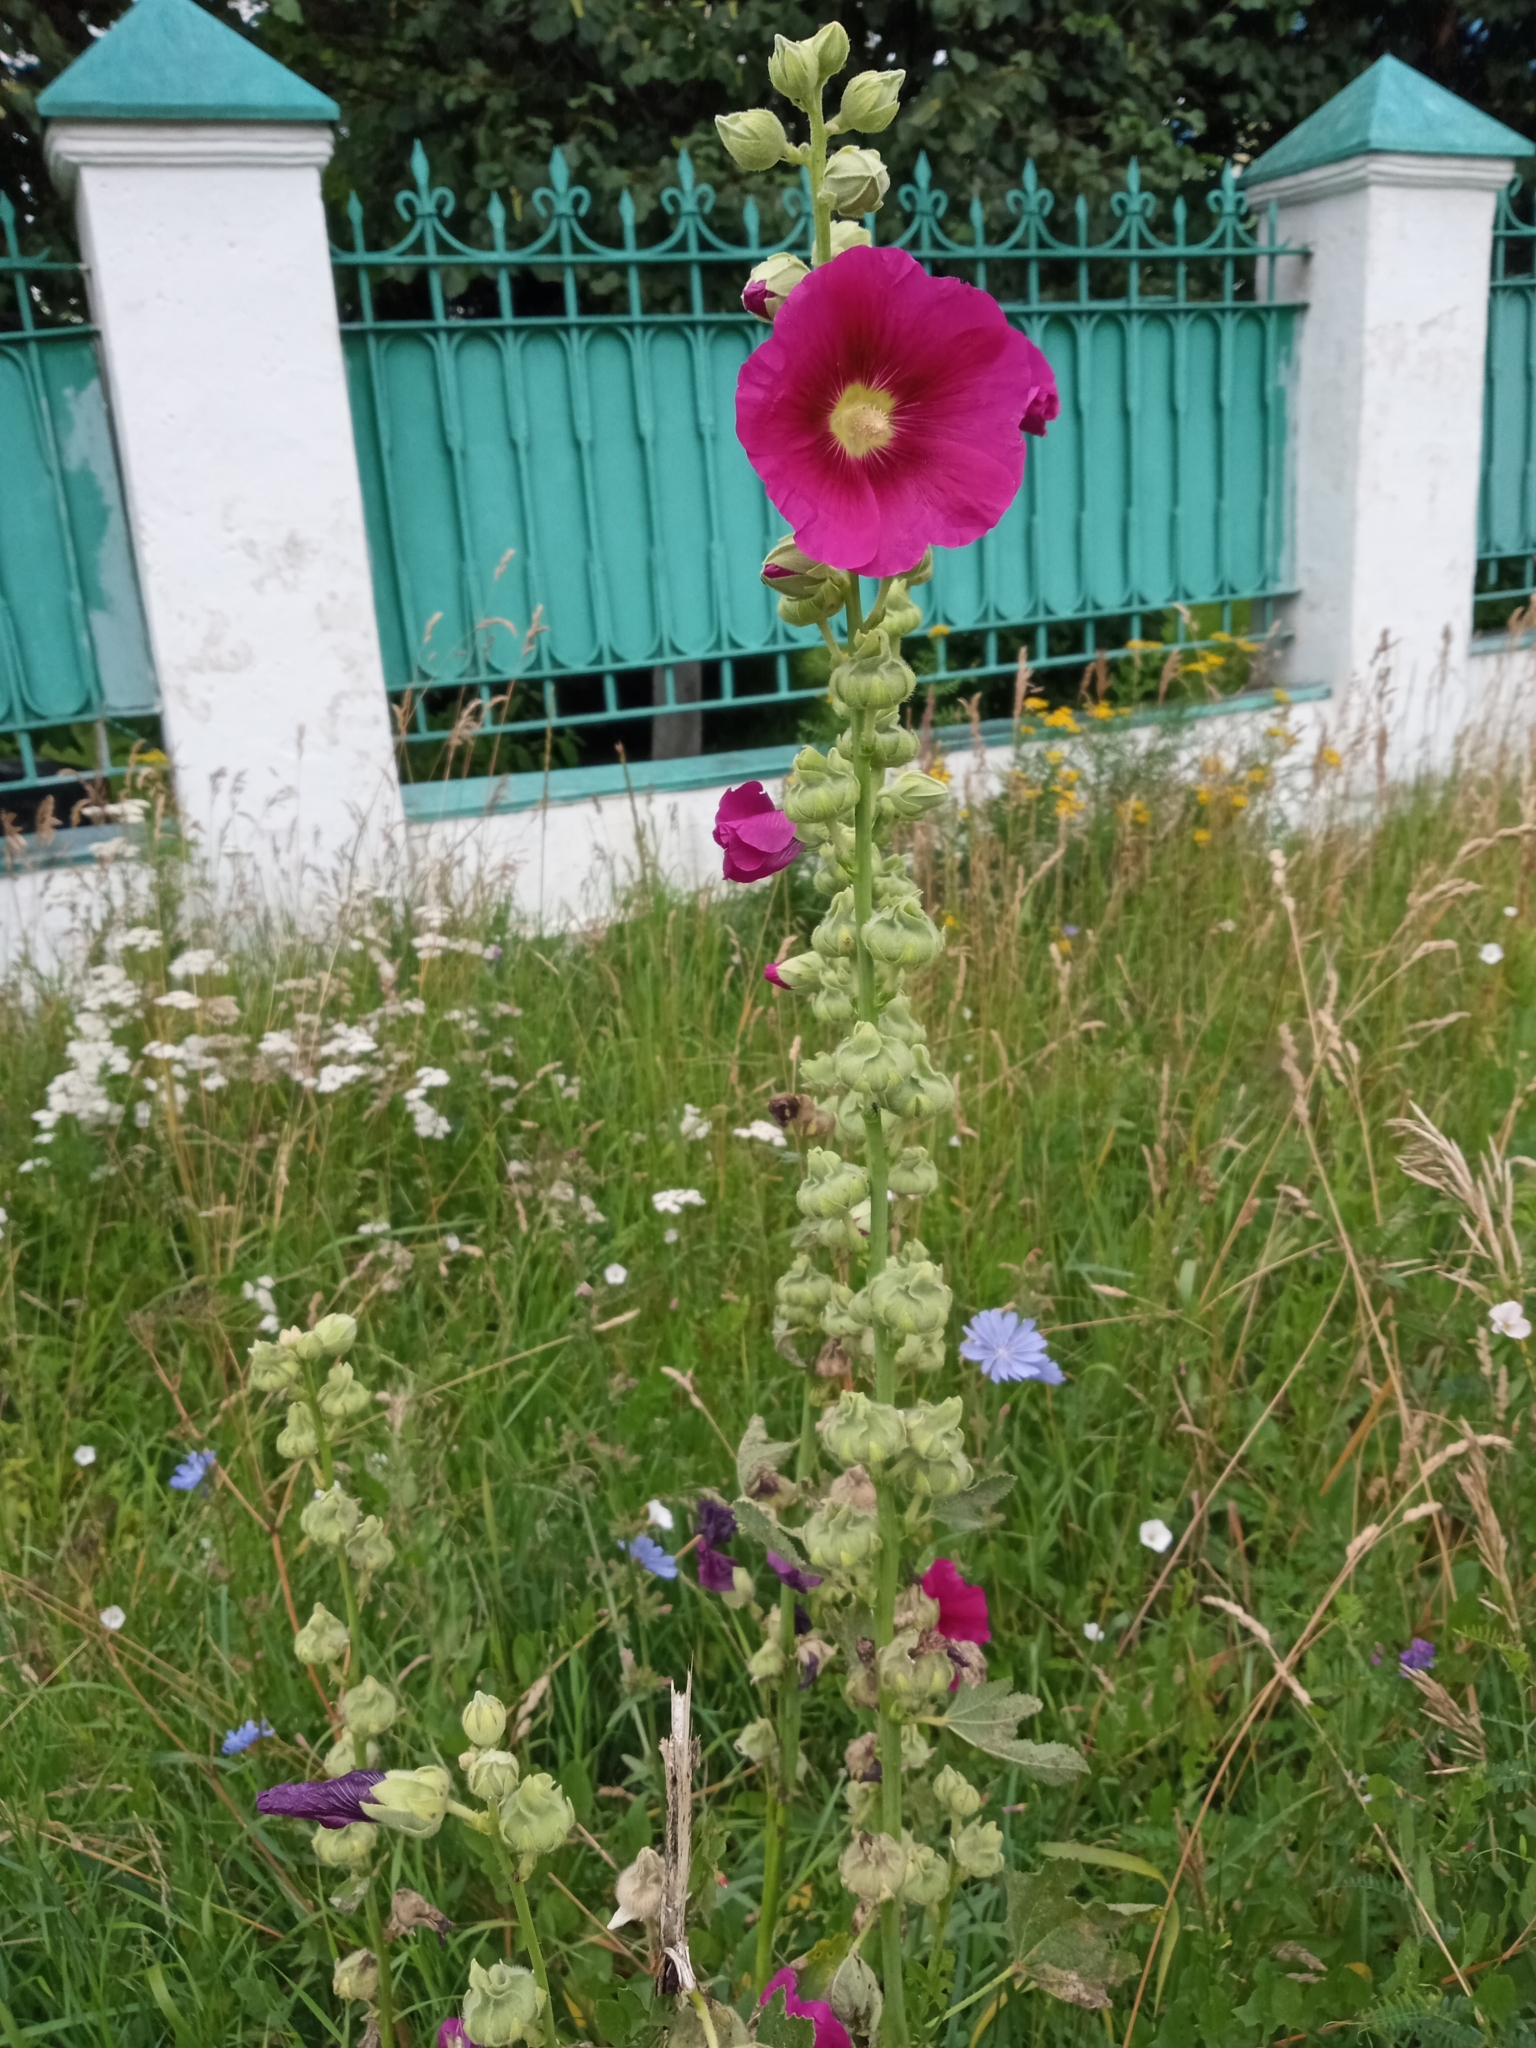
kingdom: Plantae
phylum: Tracheophyta
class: Magnoliopsida
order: Malvales
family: Malvaceae
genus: Alcea
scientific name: Alcea rosea
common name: Hollyhock
